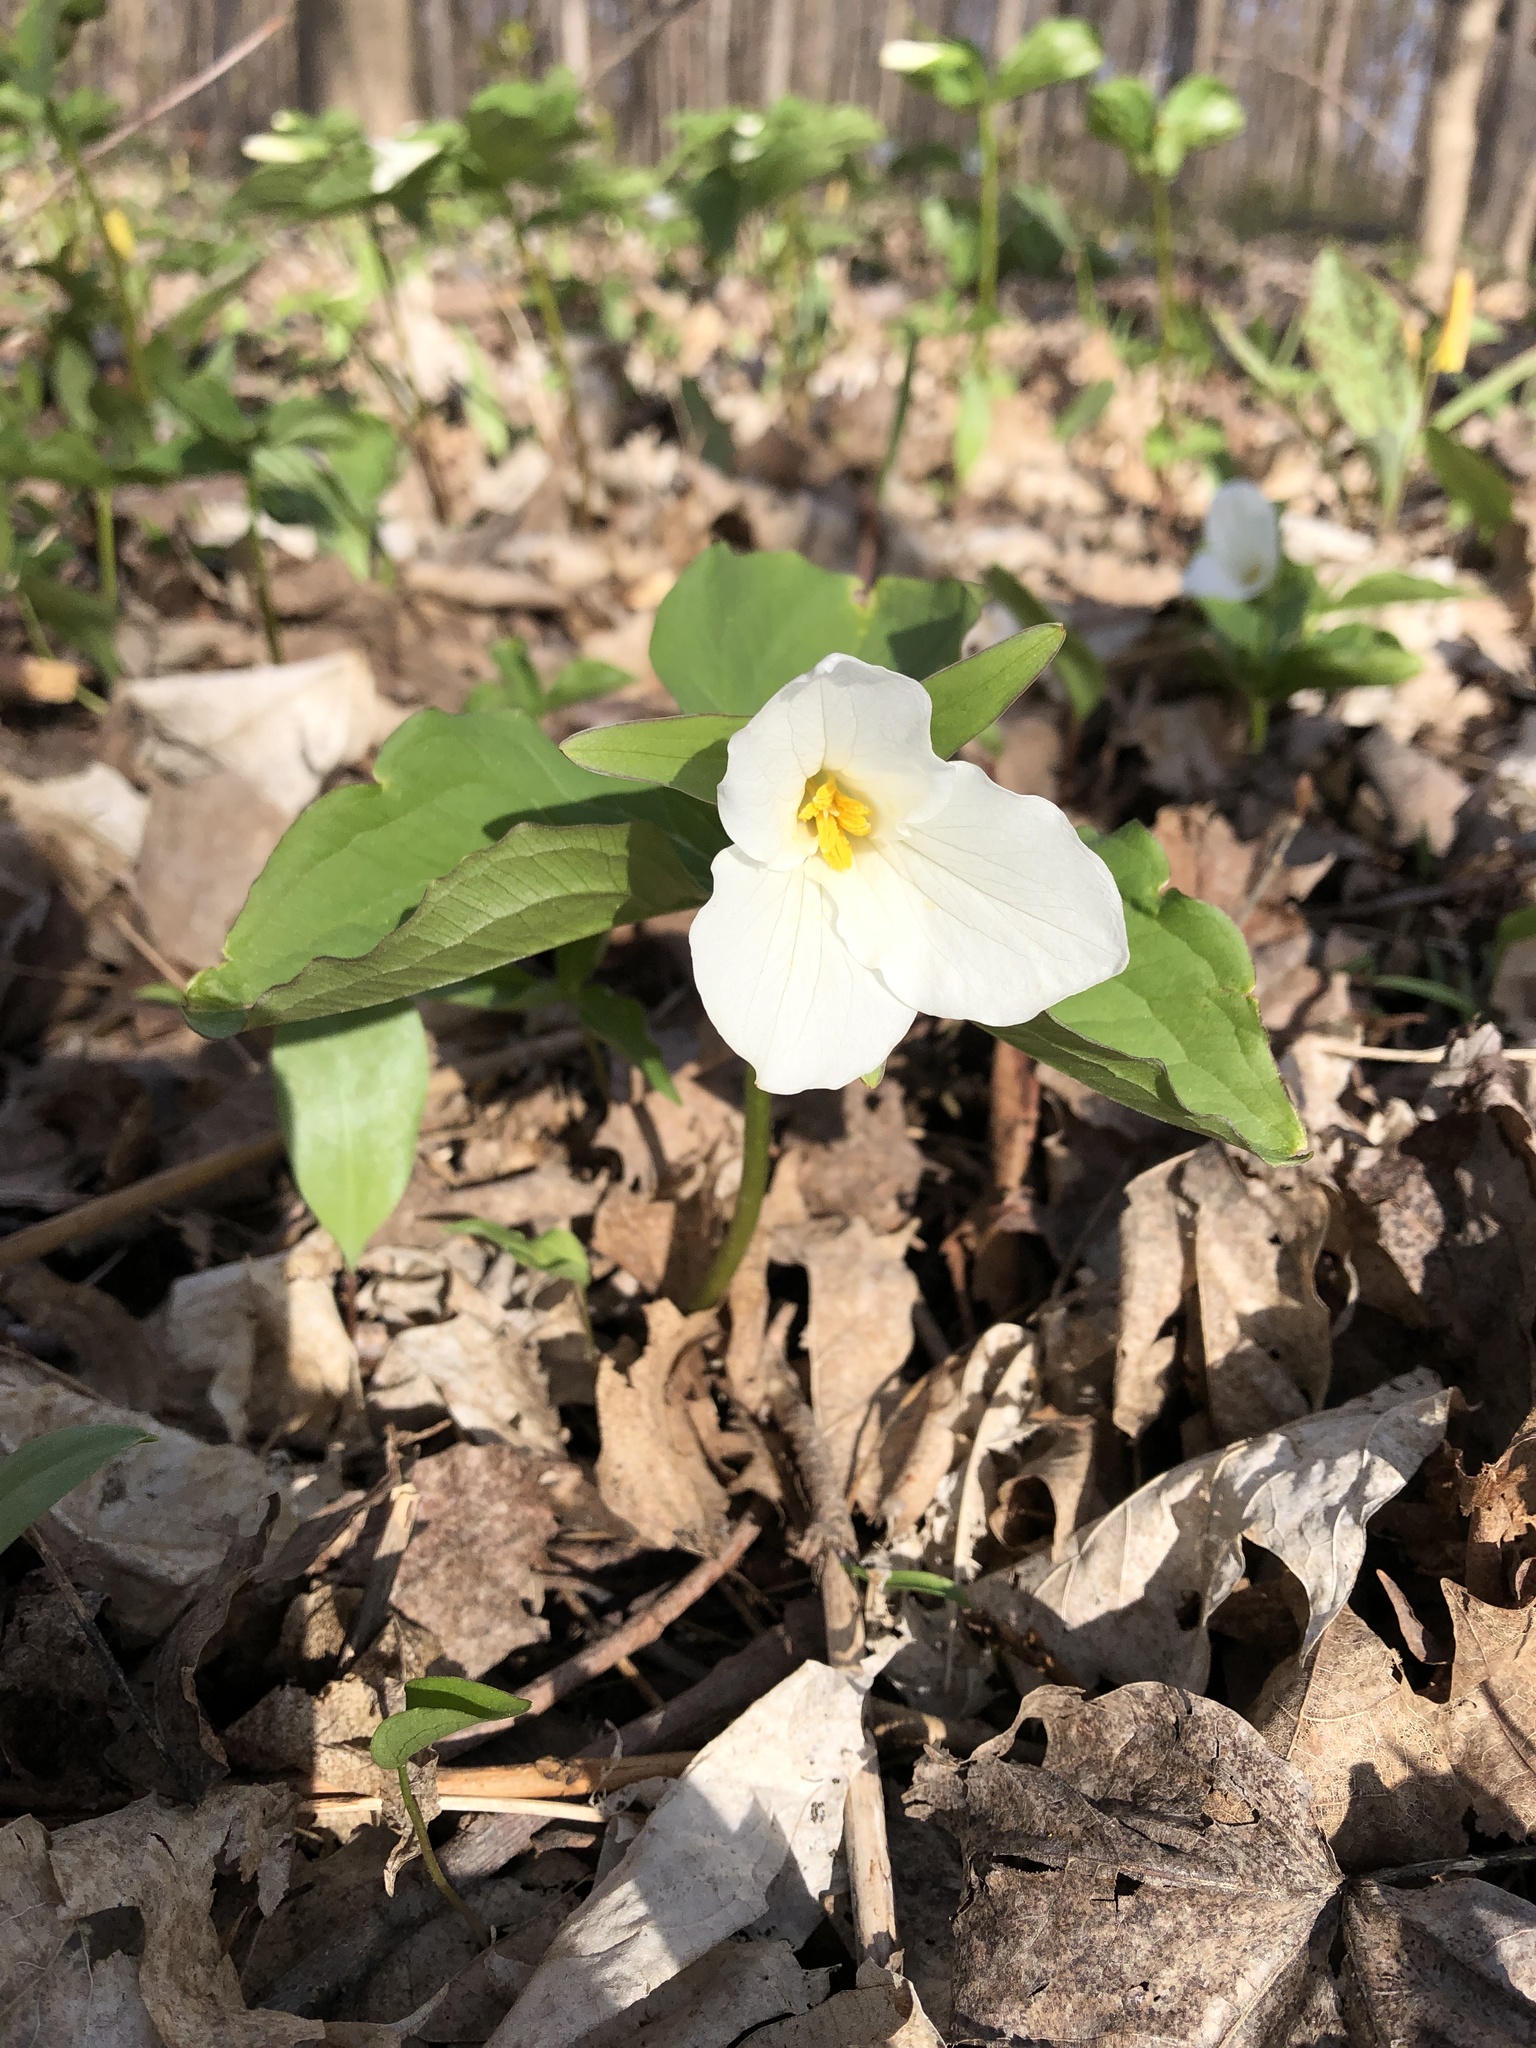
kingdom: Plantae
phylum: Tracheophyta
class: Liliopsida
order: Liliales
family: Melanthiaceae
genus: Trillium
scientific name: Trillium grandiflorum
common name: Great white trillium
